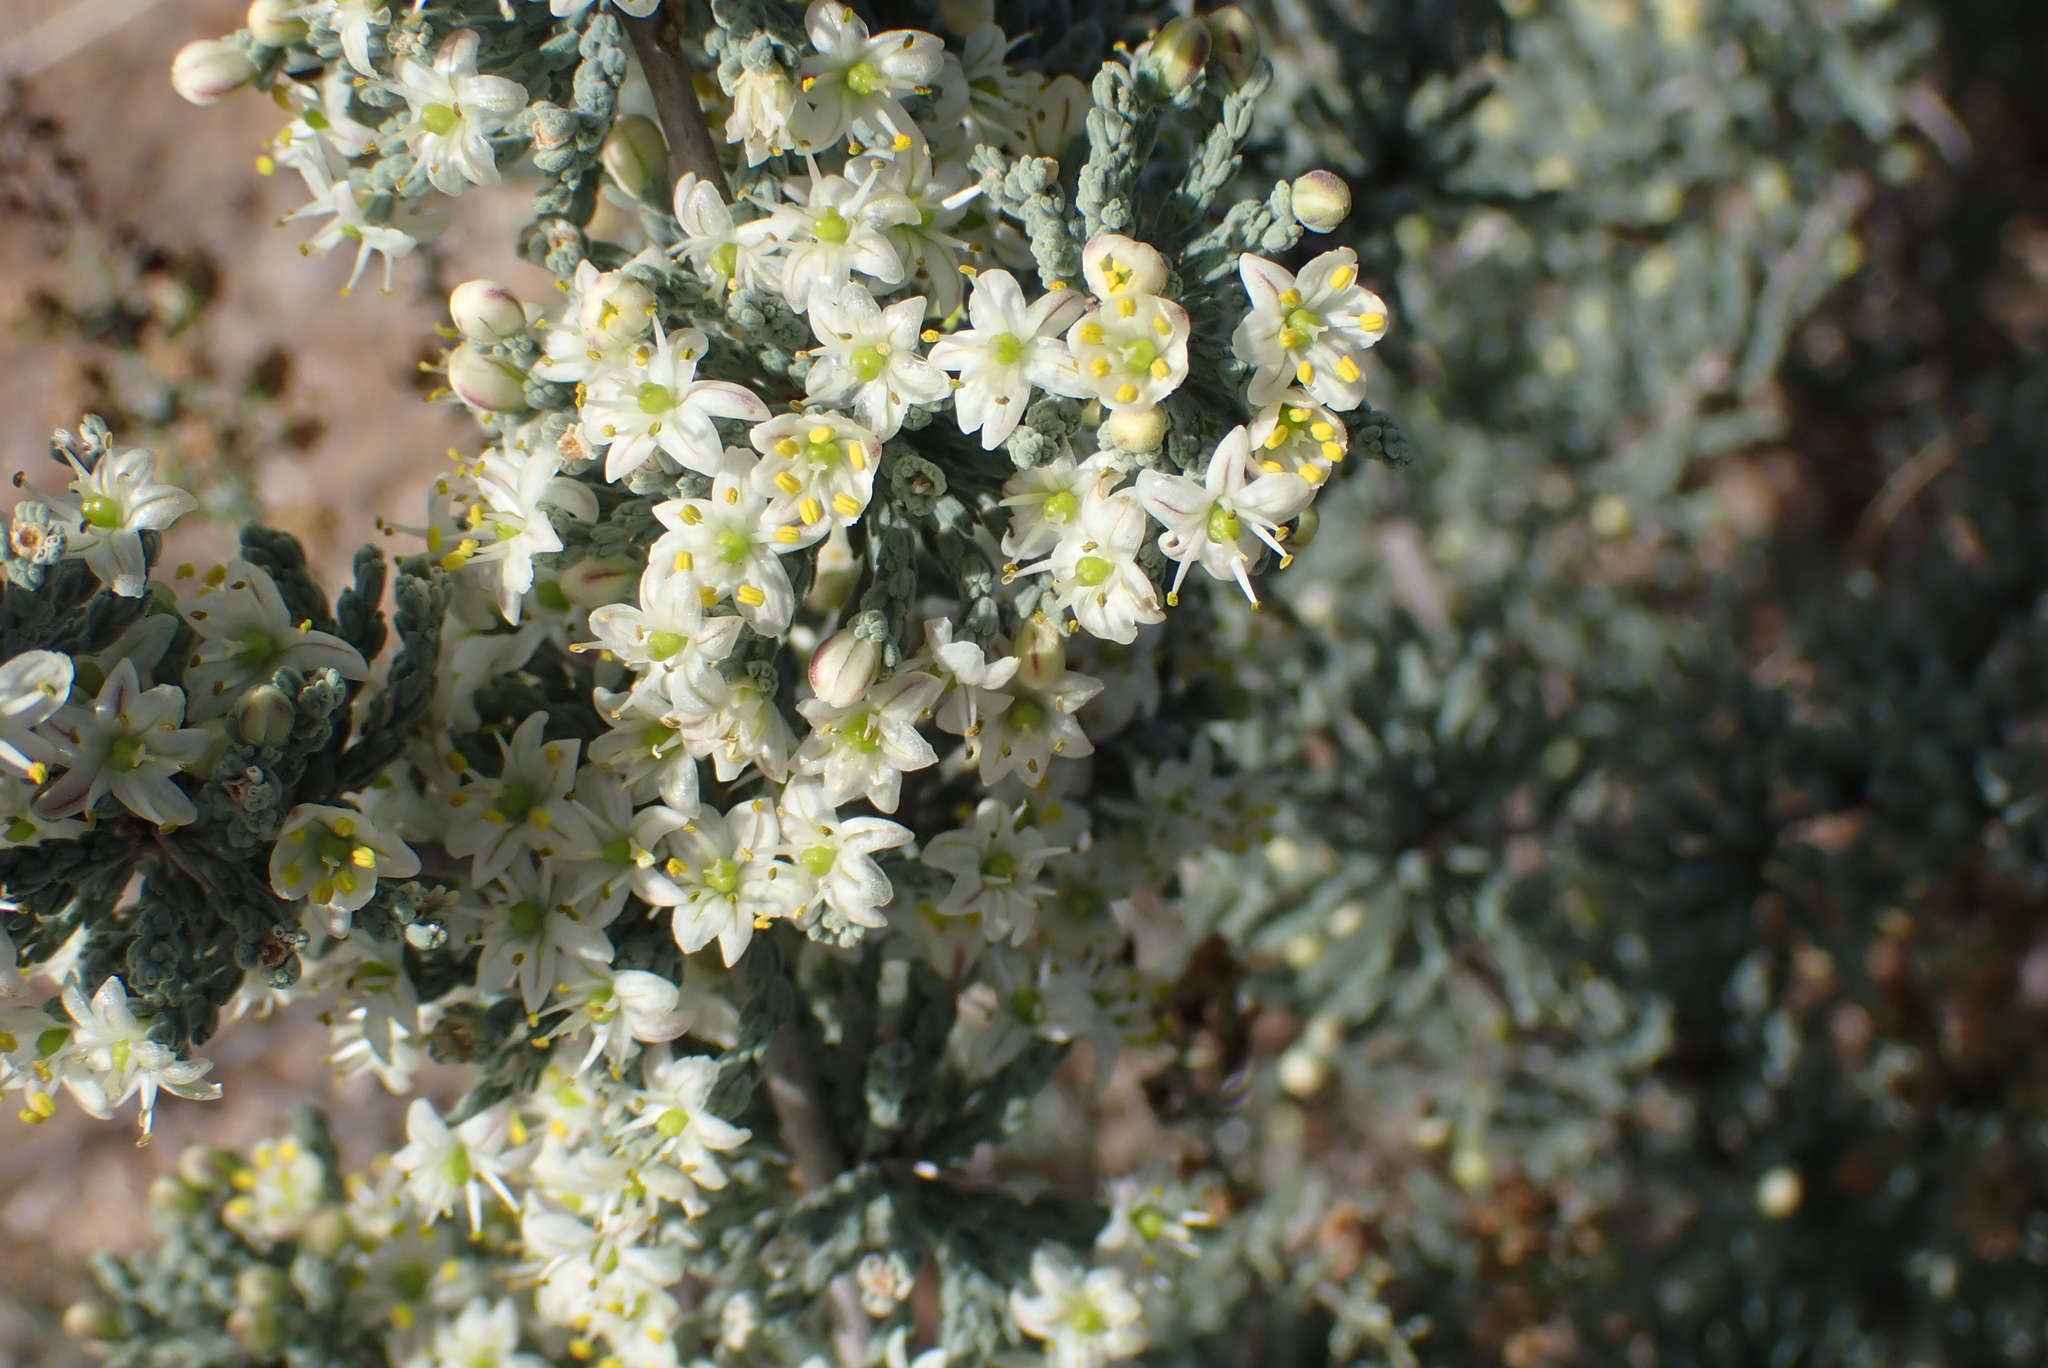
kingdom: Plantae
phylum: Tracheophyta
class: Liliopsida
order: Asparagales
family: Asparagaceae
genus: Asparagus
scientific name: Asparagus capensis
